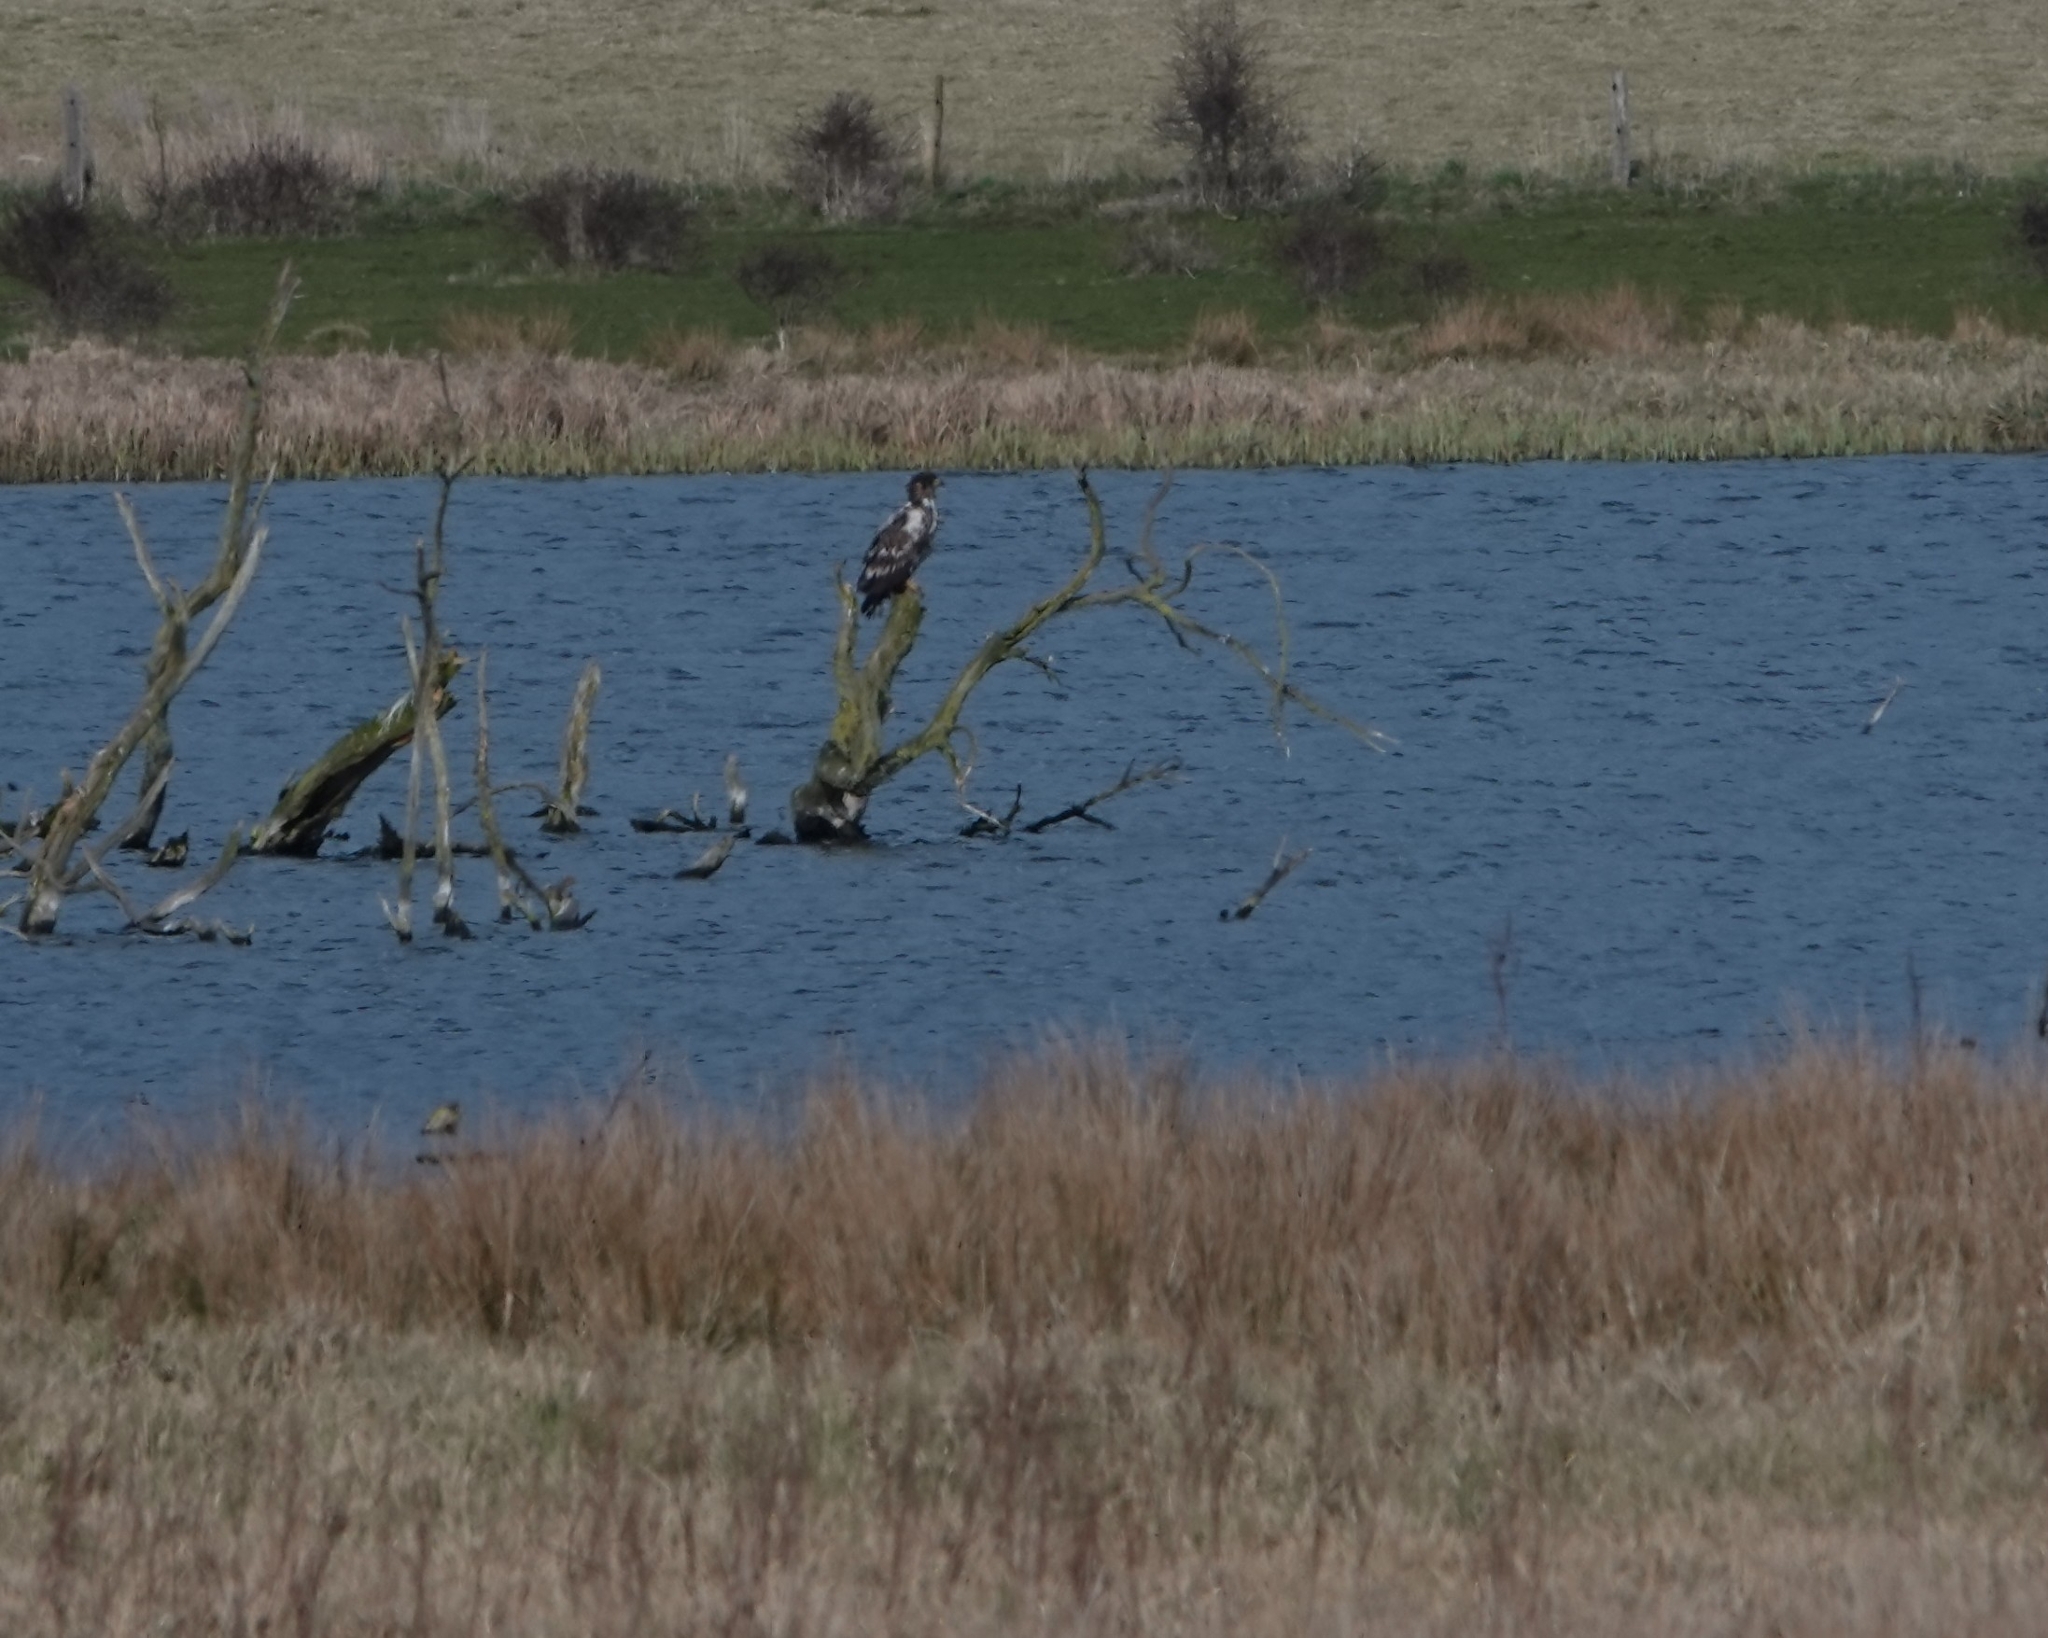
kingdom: Animalia
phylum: Chordata
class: Aves
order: Accipitriformes
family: Accipitridae
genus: Haliaeetus
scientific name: Haliaeetus albicilla
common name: White-tailed eagle
